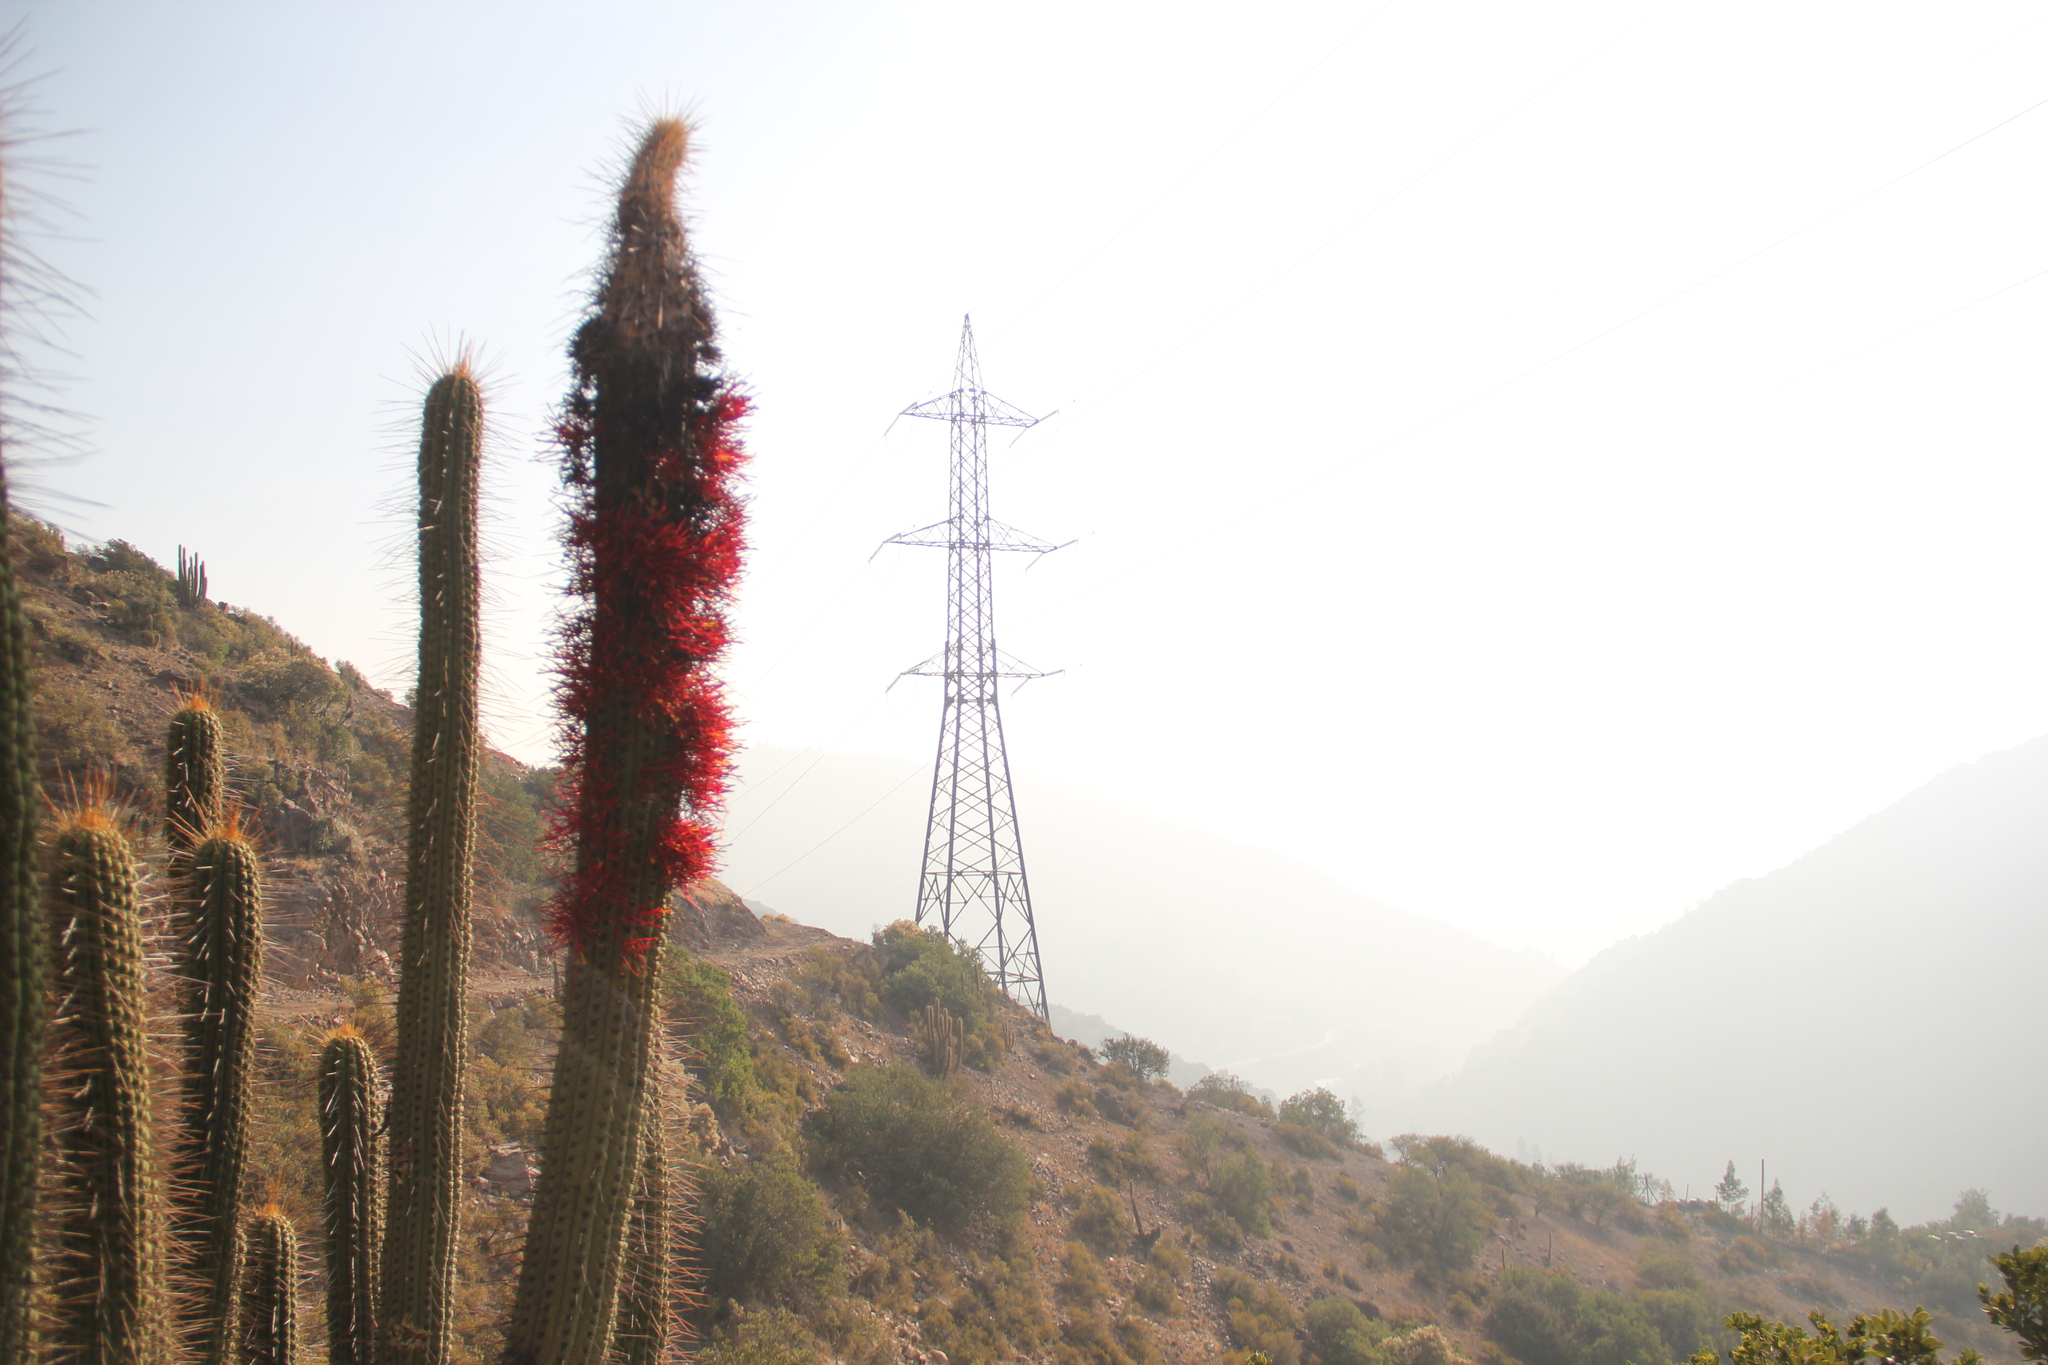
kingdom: Plantae
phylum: Tracheophyta
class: Magnoliopsida
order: Caryophyllales
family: Cactaceae
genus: Leucostele
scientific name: Leucostele chiloensis
